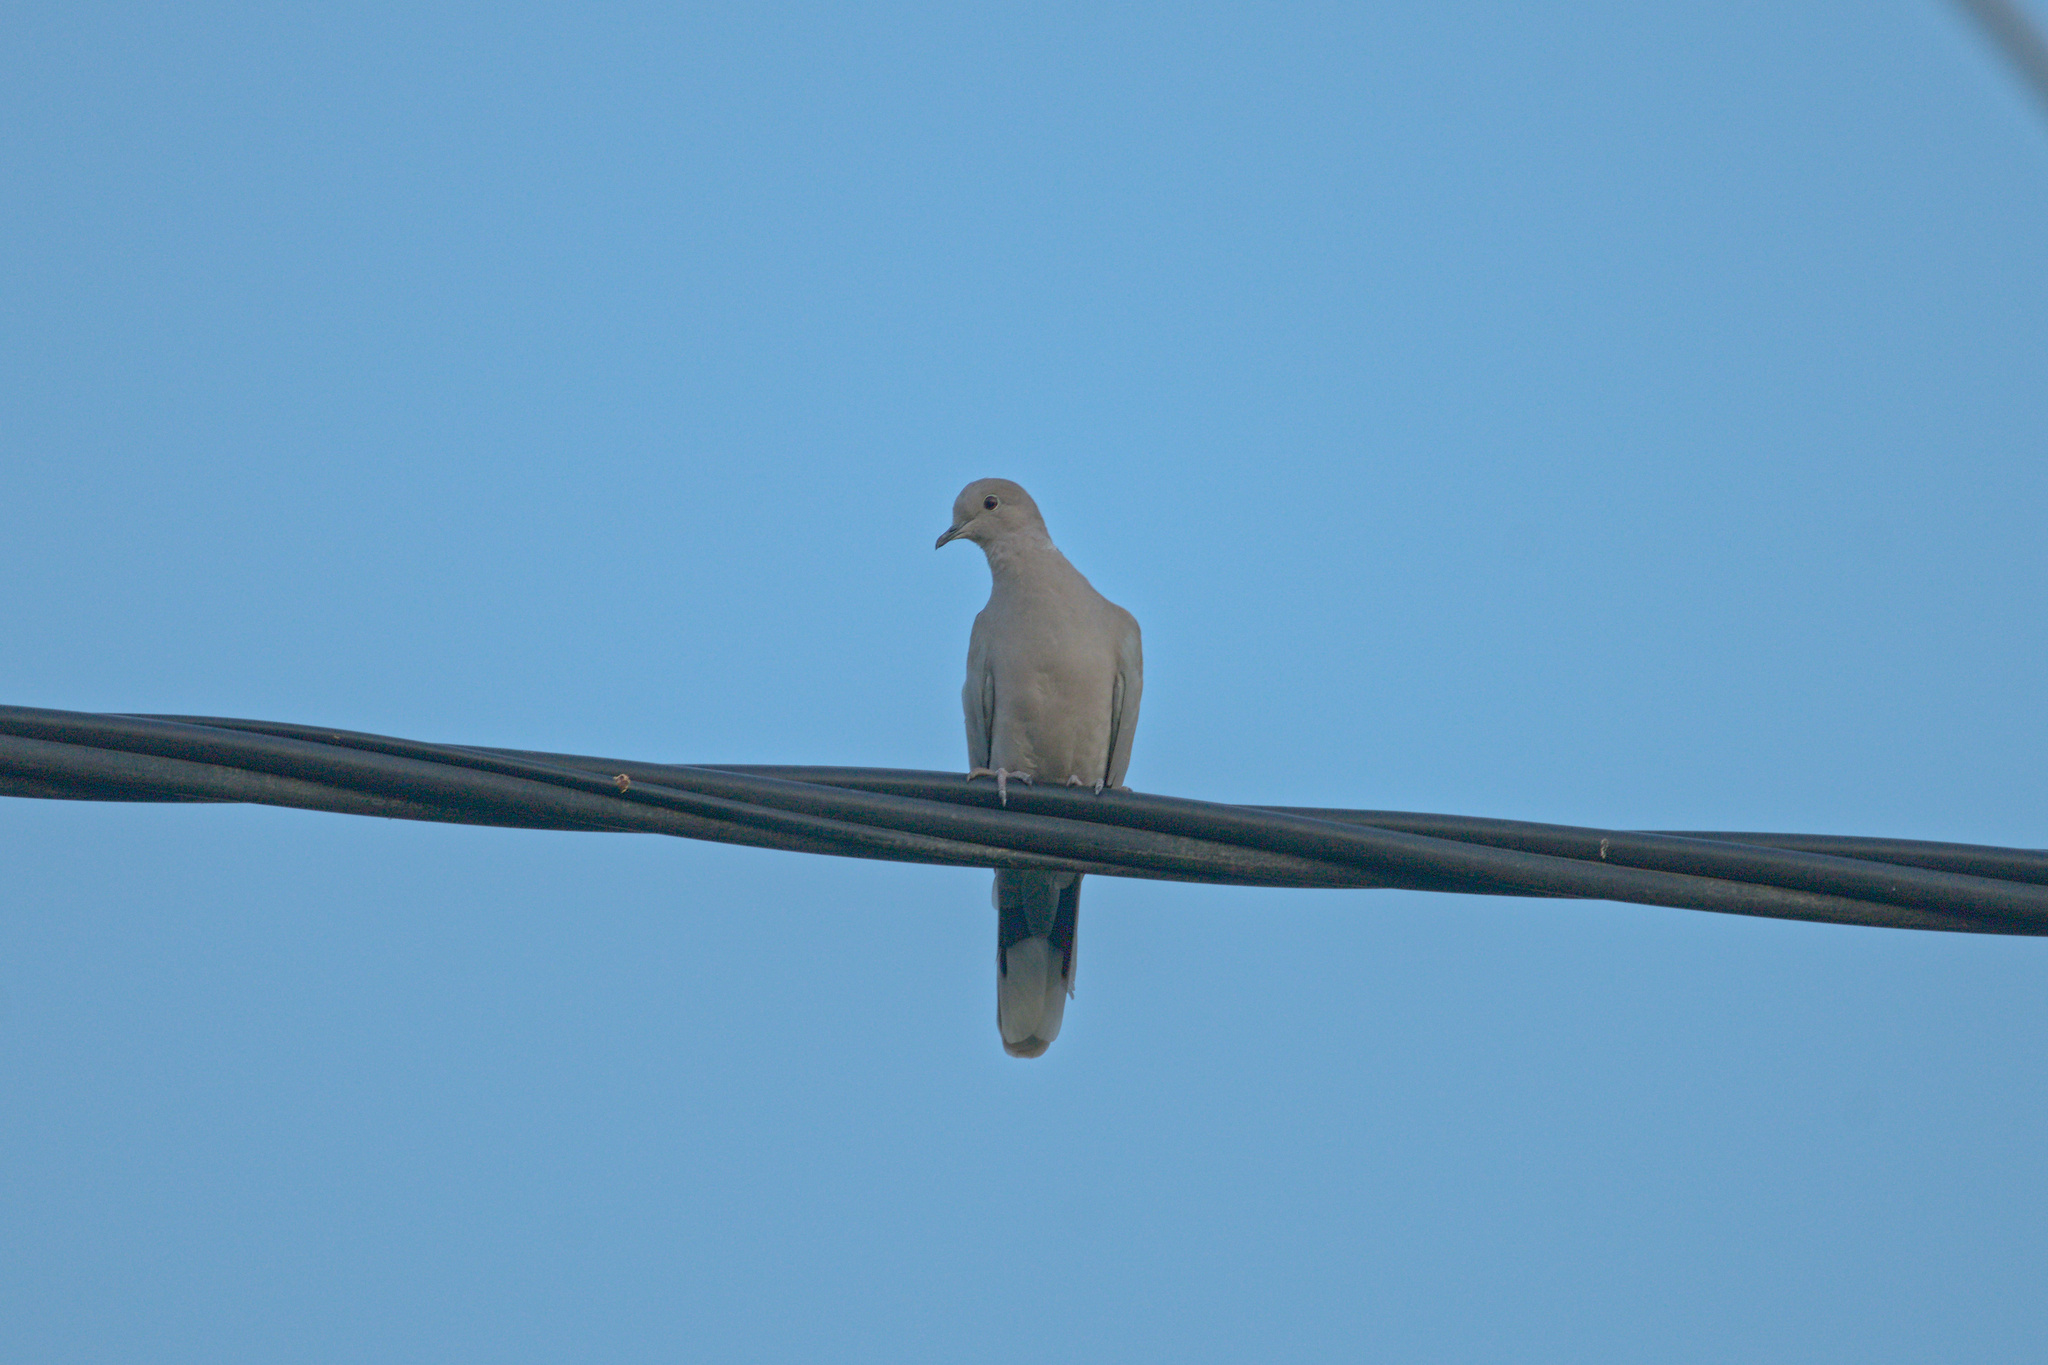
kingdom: Animalia
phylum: Chordata
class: Aves
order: Columbiformes
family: Columbidae
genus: Streptopelia
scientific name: Streptopelia decaocto
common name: Eurasian collared dove
